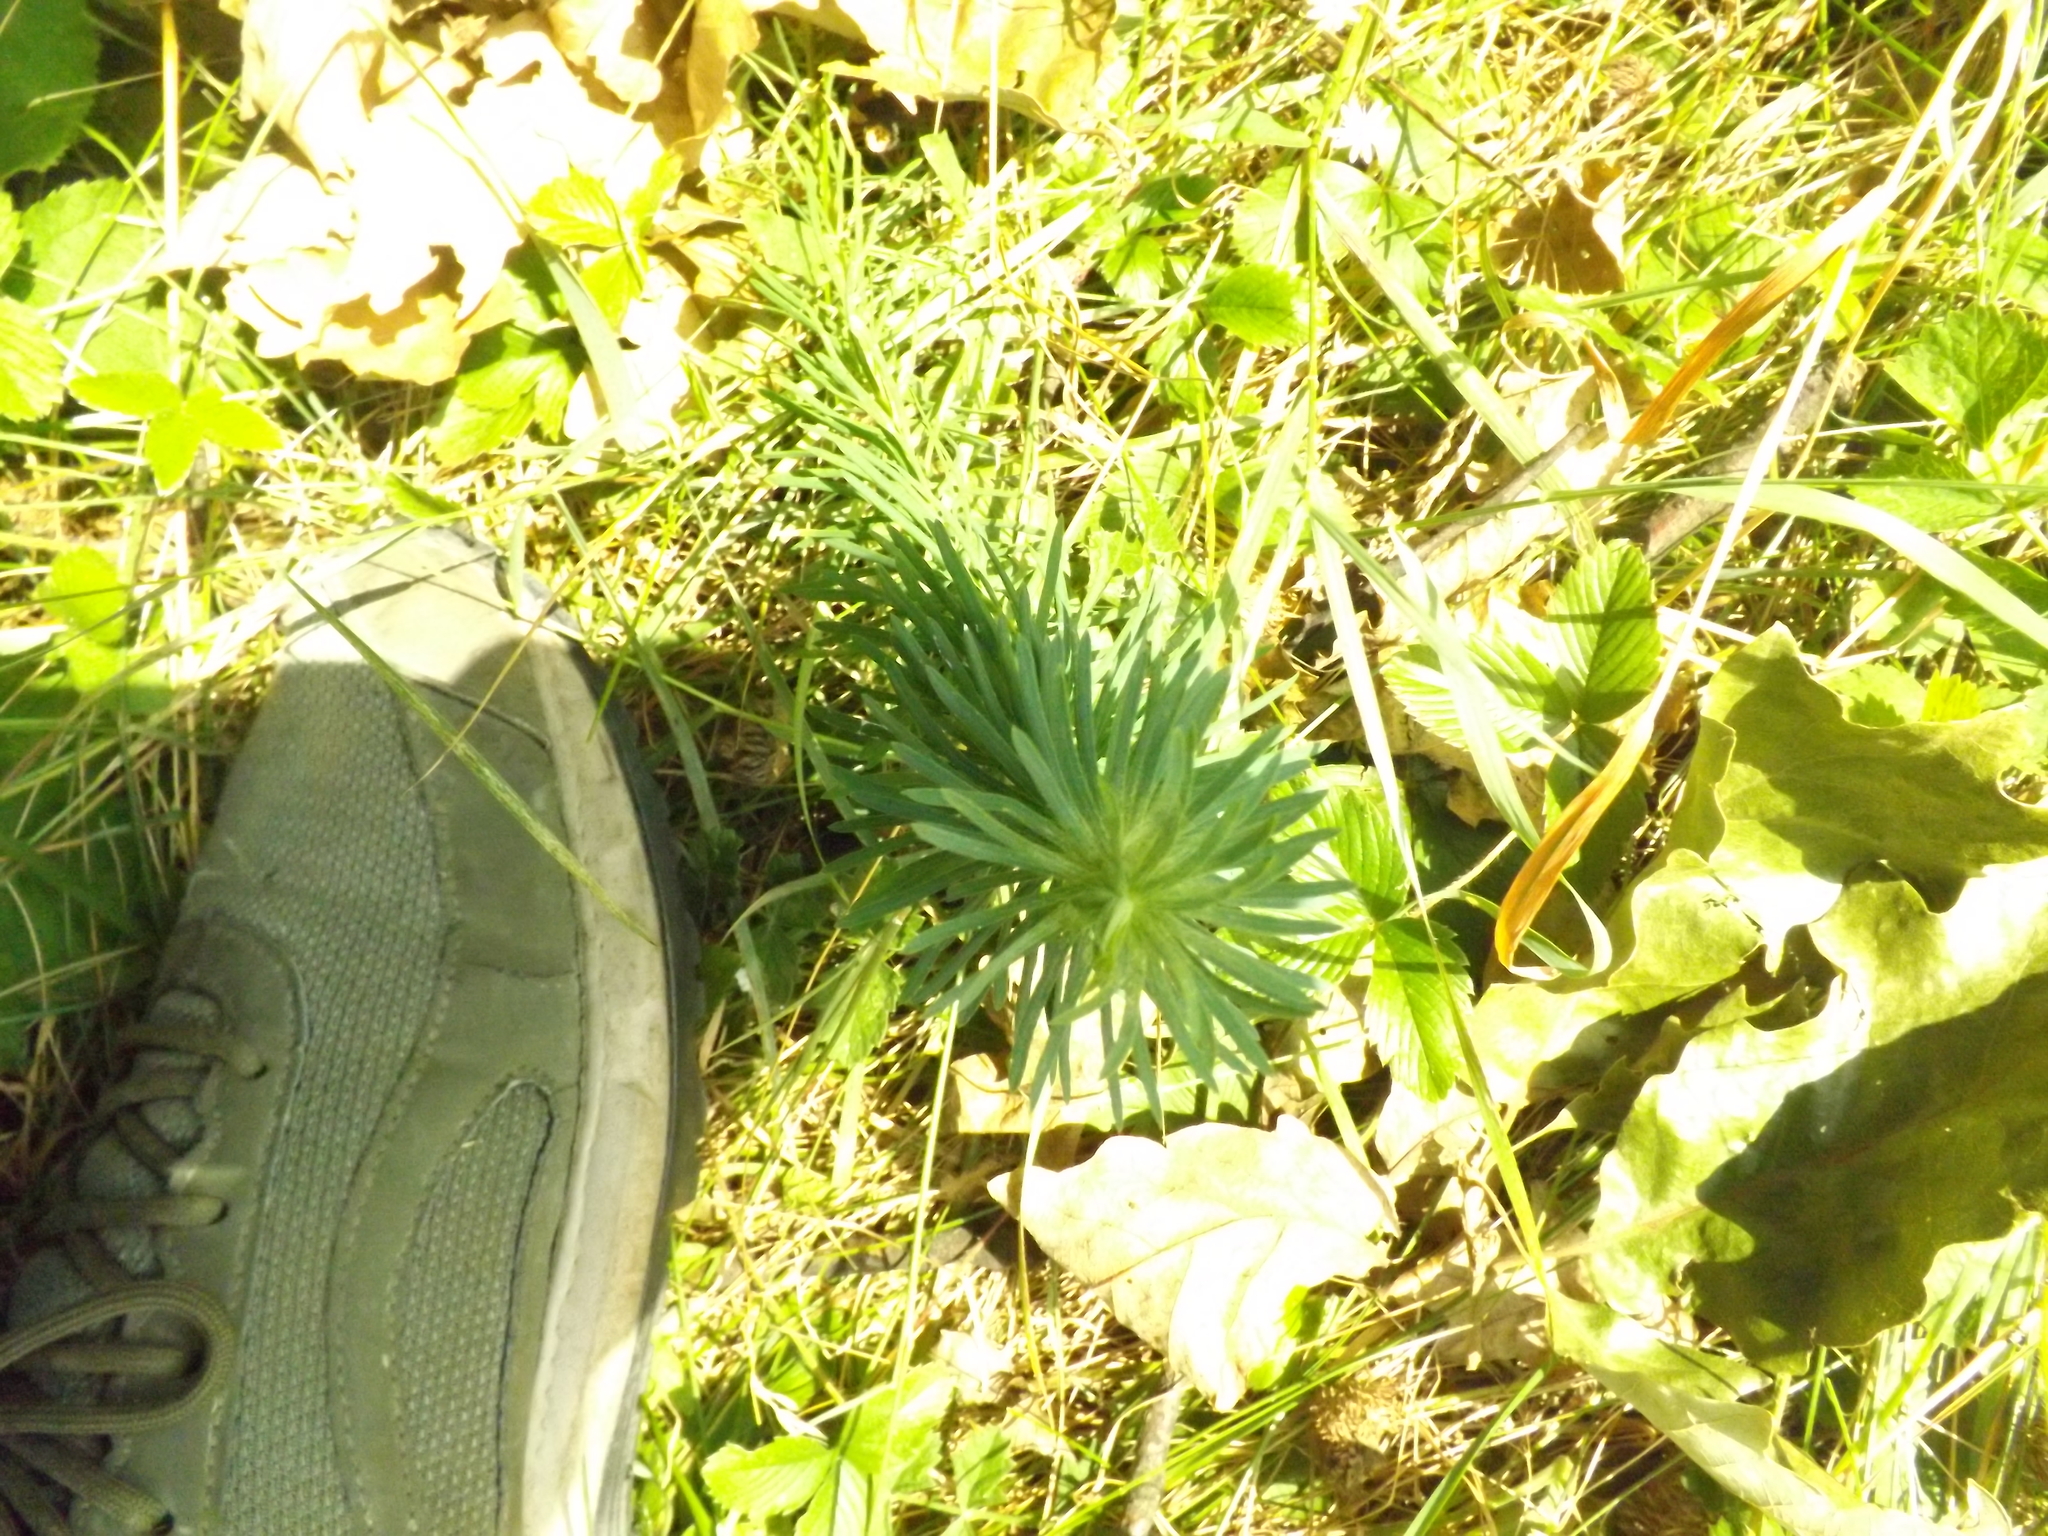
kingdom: Plantae
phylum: Tracheophyta
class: Magnoliopsida
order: Malpighiales
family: Euphorbiaceae
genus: Euphorbia
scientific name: Euphorbia cyparissias
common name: Cypress spurge
